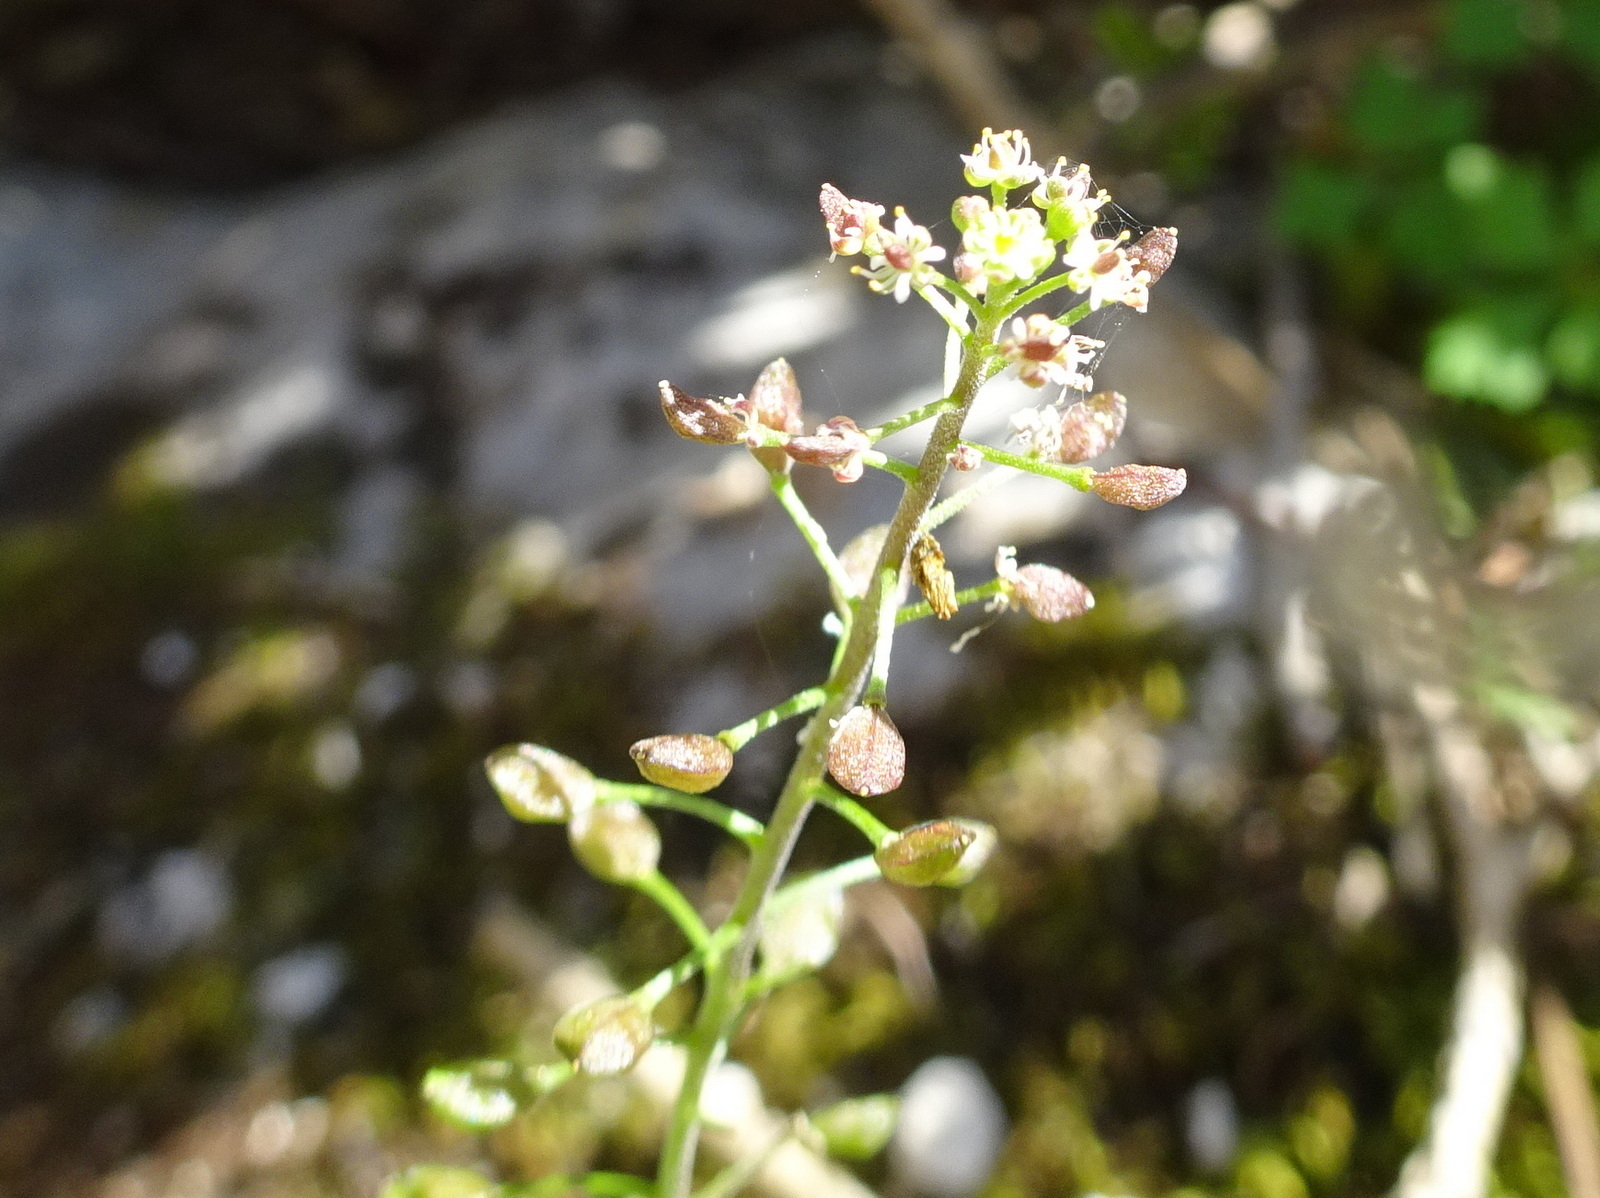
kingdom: Plantae
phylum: Tracheophyta
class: Magnoliopsida
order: Brassicales
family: Brassicaceae
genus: Hornungia
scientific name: Hornungia petraea
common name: Hutchinsia
